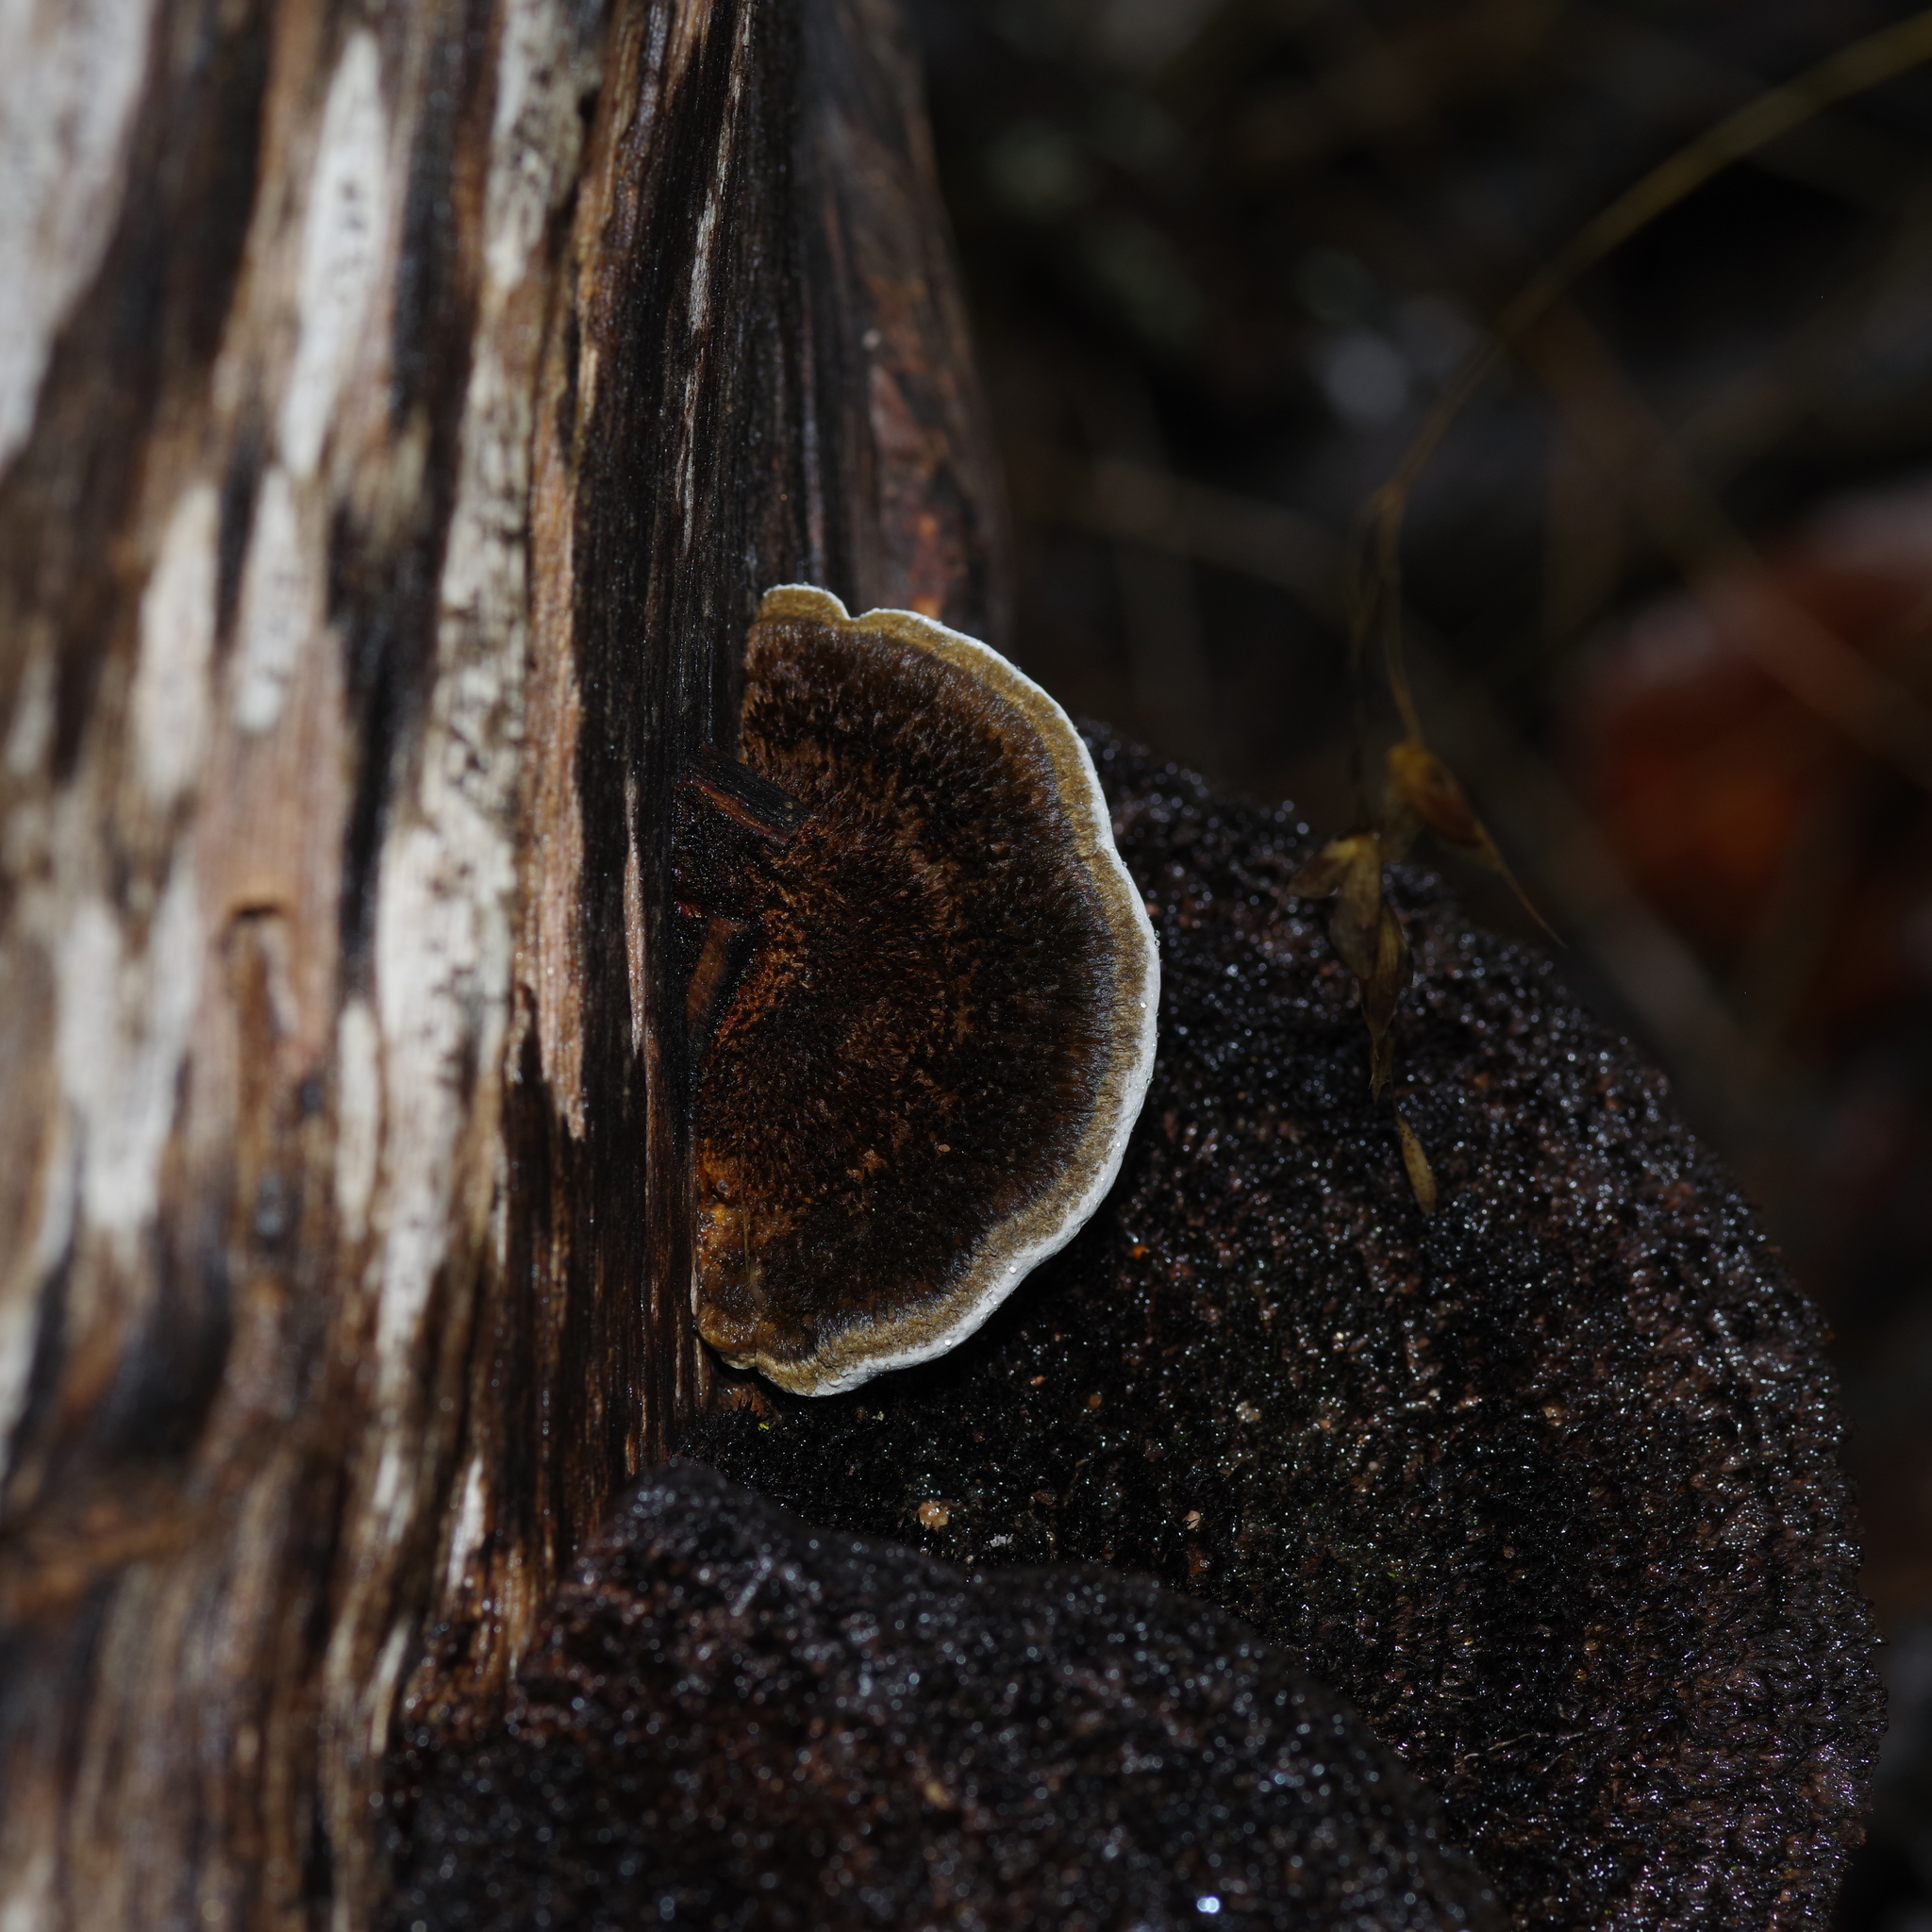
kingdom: Fungi
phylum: Basidiomycota
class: Agaricomycetes
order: Polyporales
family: Cerrenaceae
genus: Cerrena
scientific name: Cerrena hydnoides
